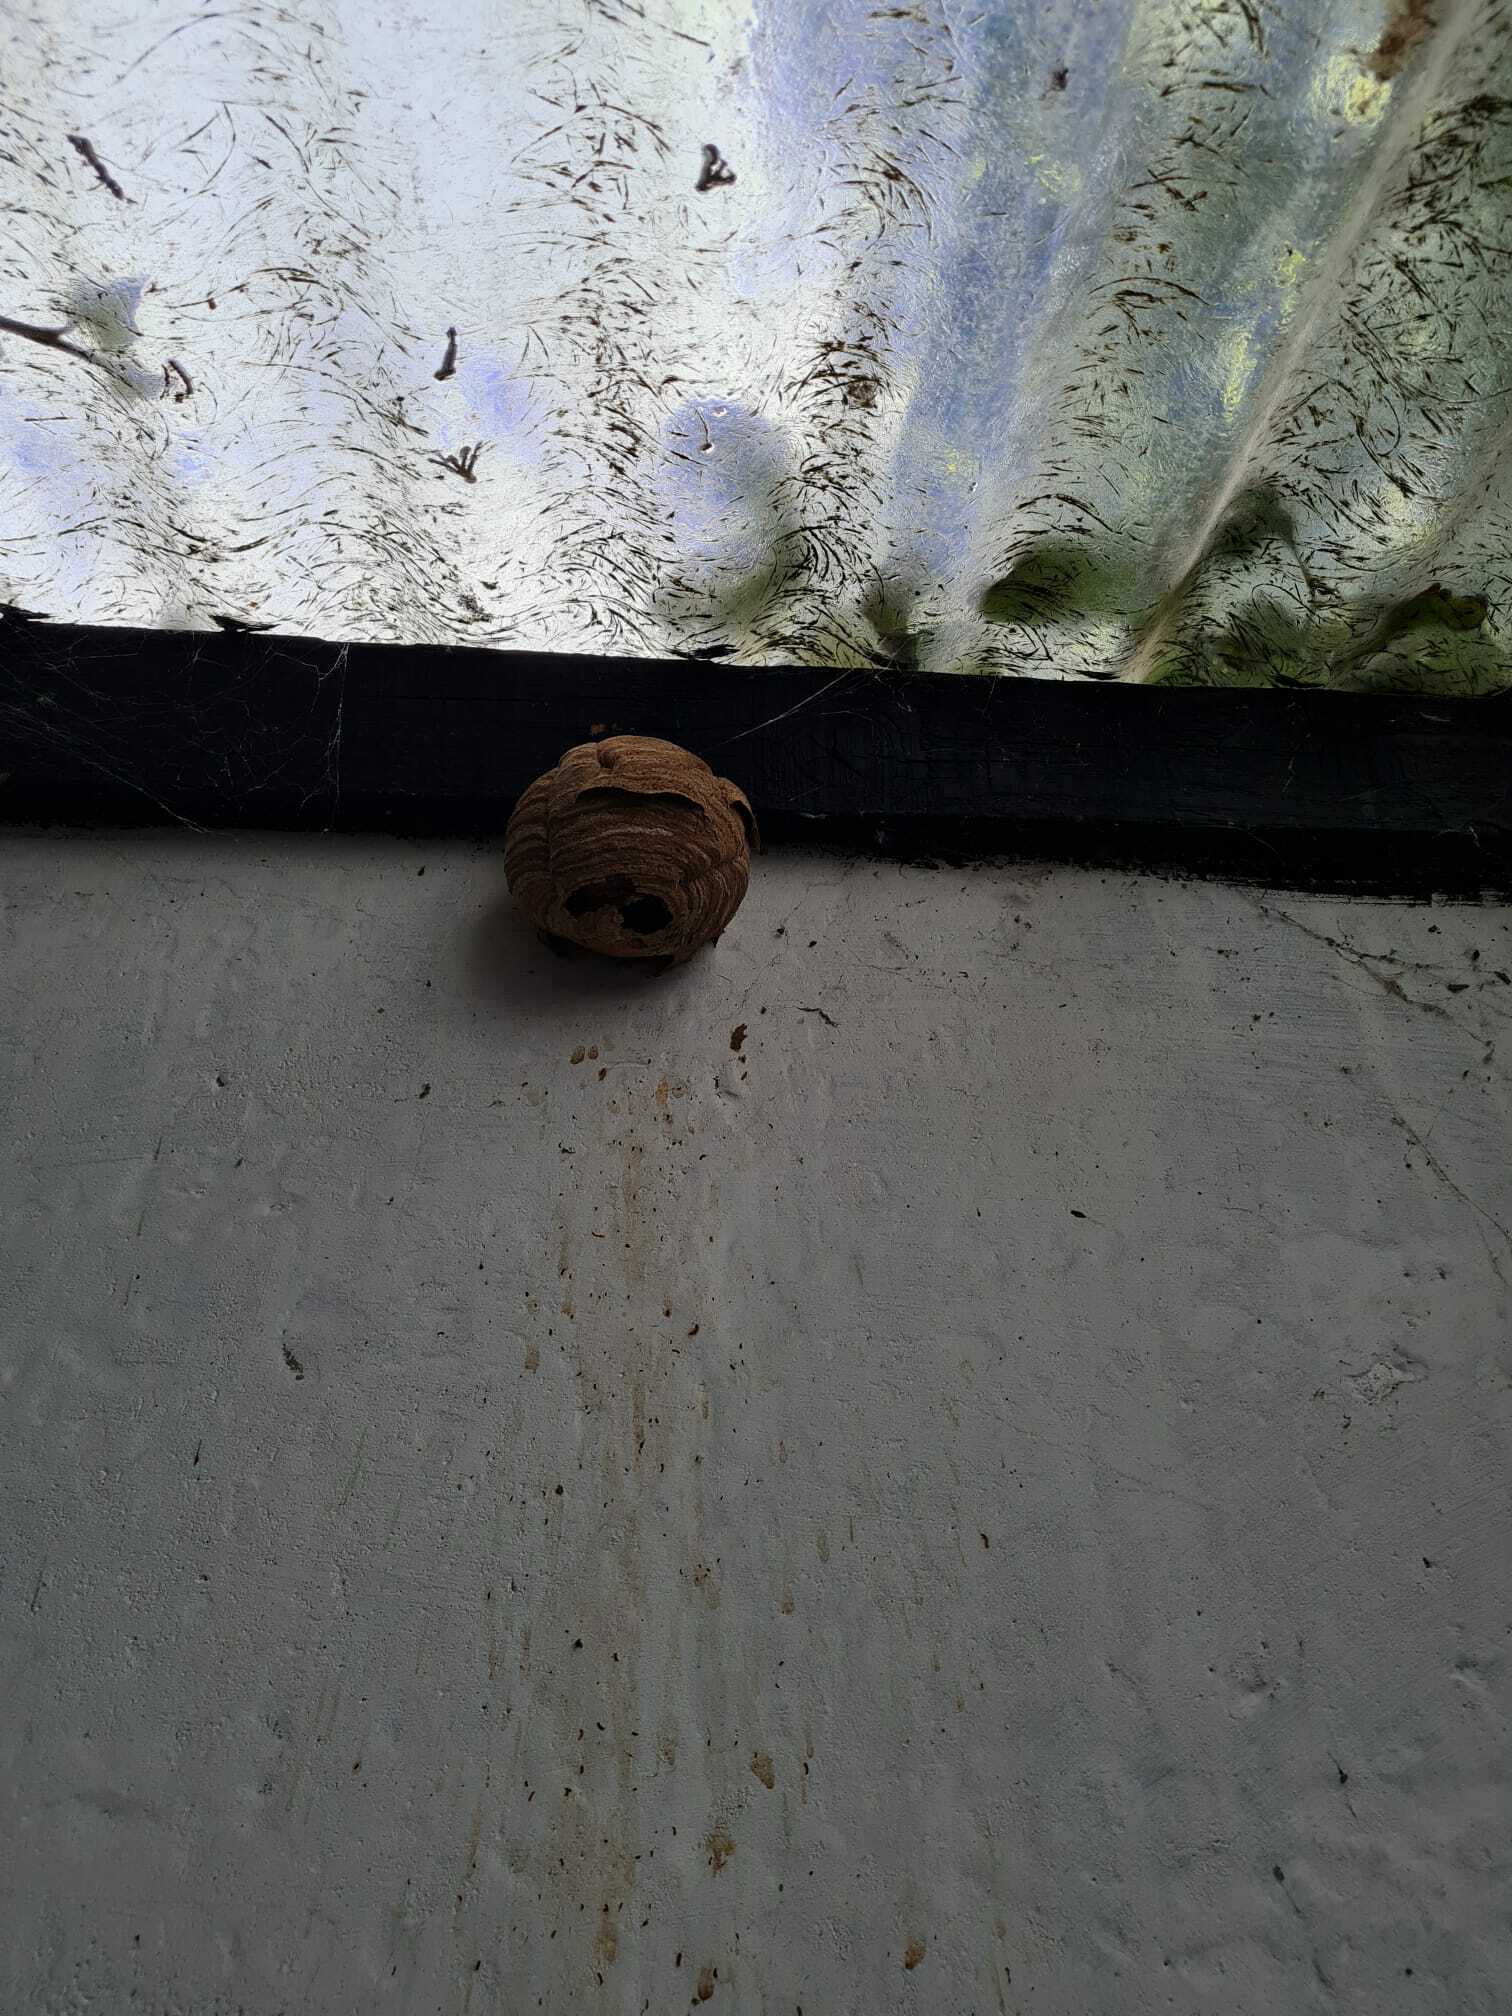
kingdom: Animalia
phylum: Arthropoda
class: Insecta
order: Hymenoptera
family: Vespidae
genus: Vespa
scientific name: Vespa velutina
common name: Asian hornet
